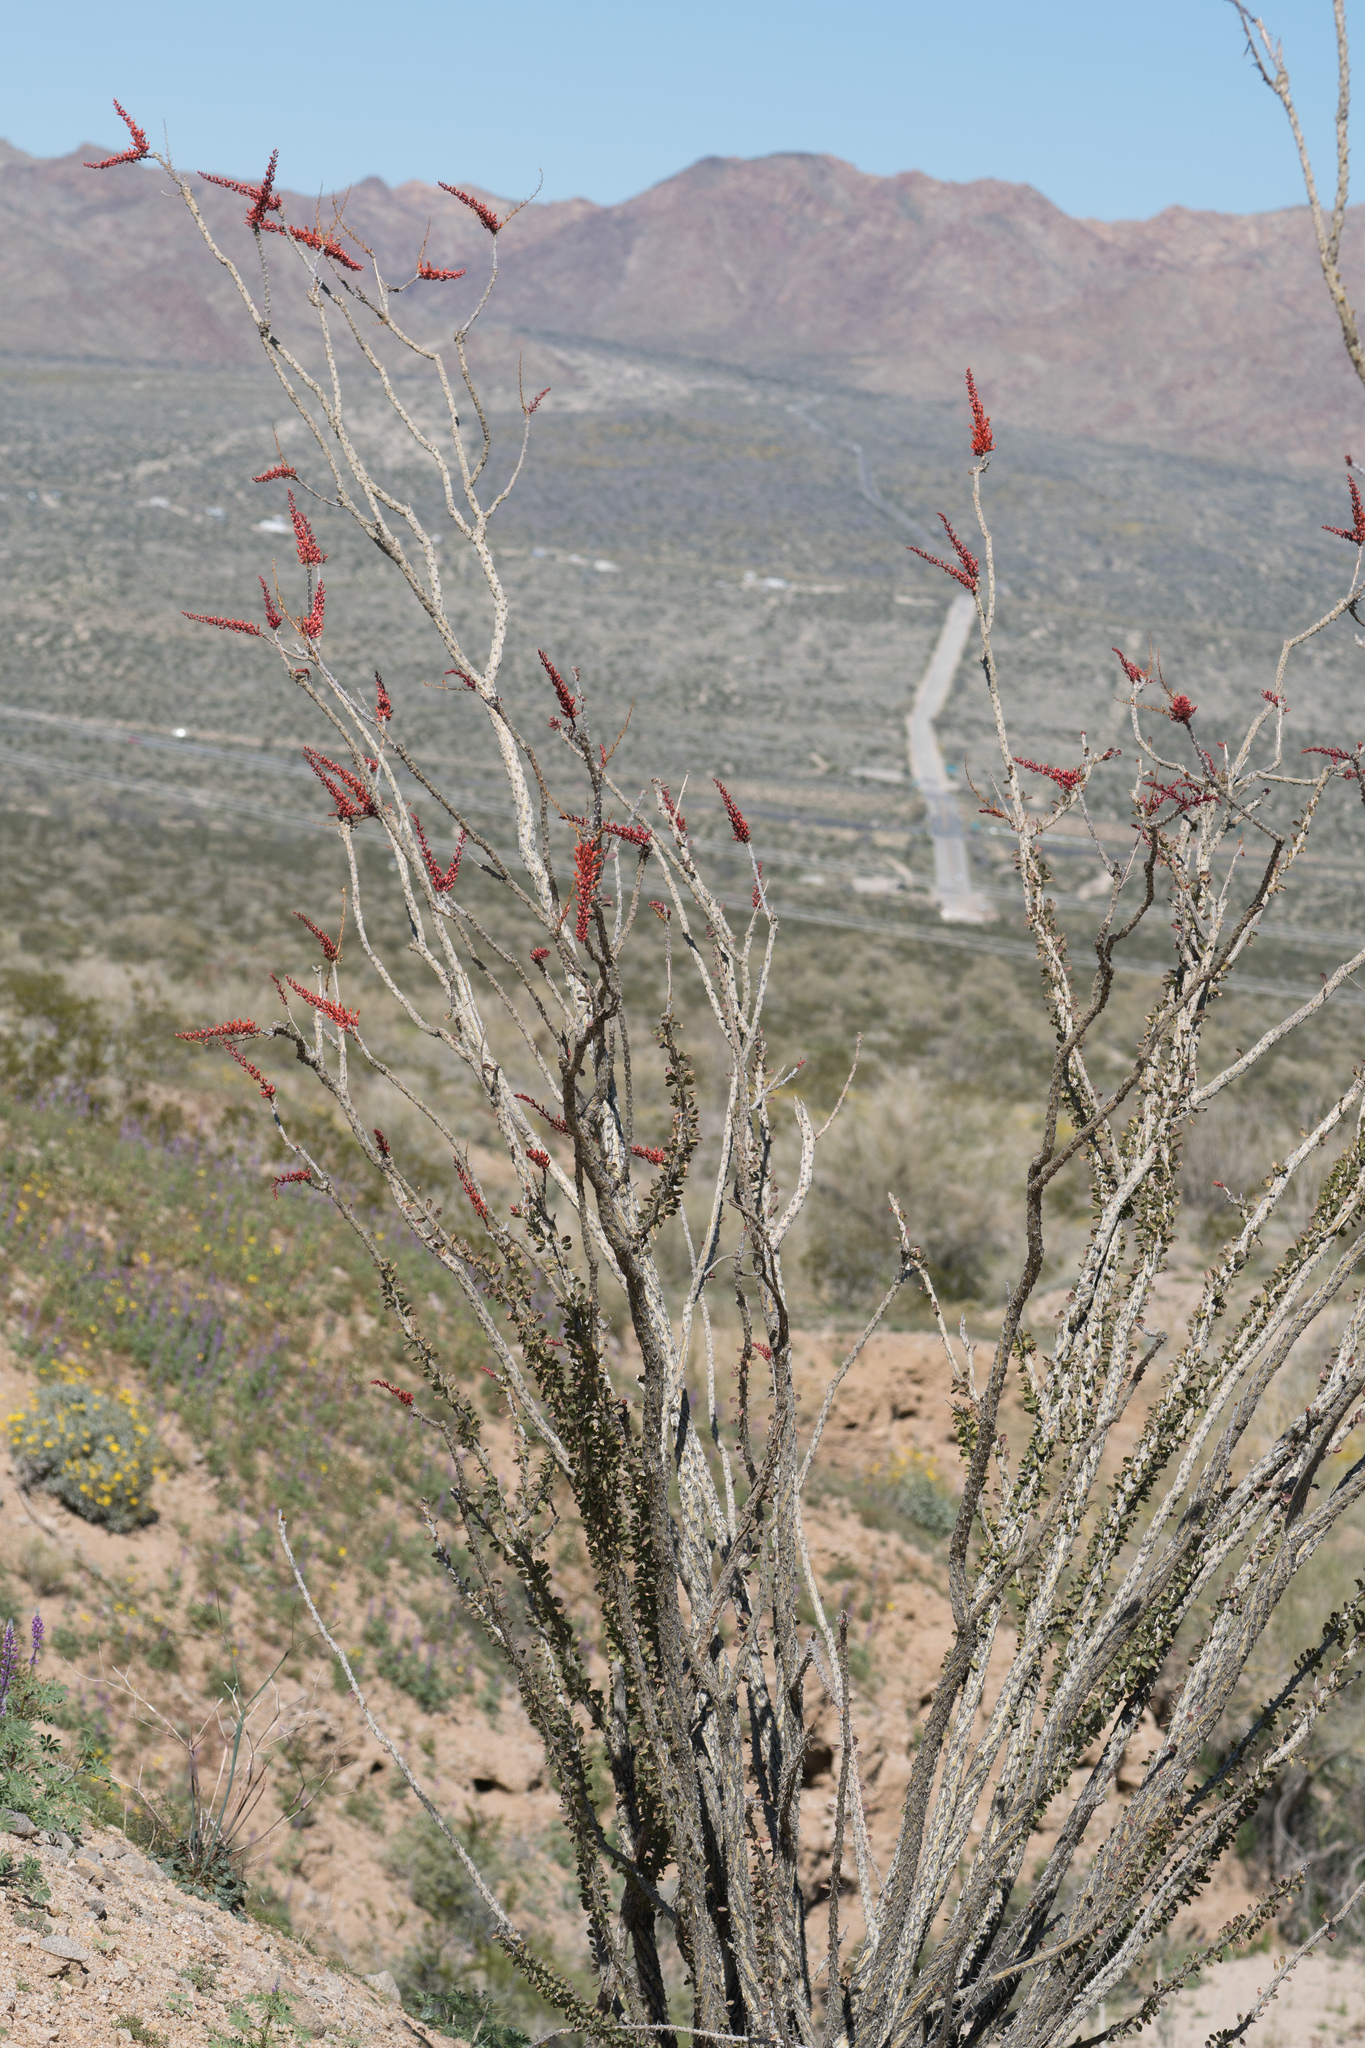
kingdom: Plantae
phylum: Tracheophyta
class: Magnoliopsida
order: Ericales
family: Fouquieriaceae
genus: Fouquieria
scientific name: Fouquieria splendens
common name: Vine-cactus
